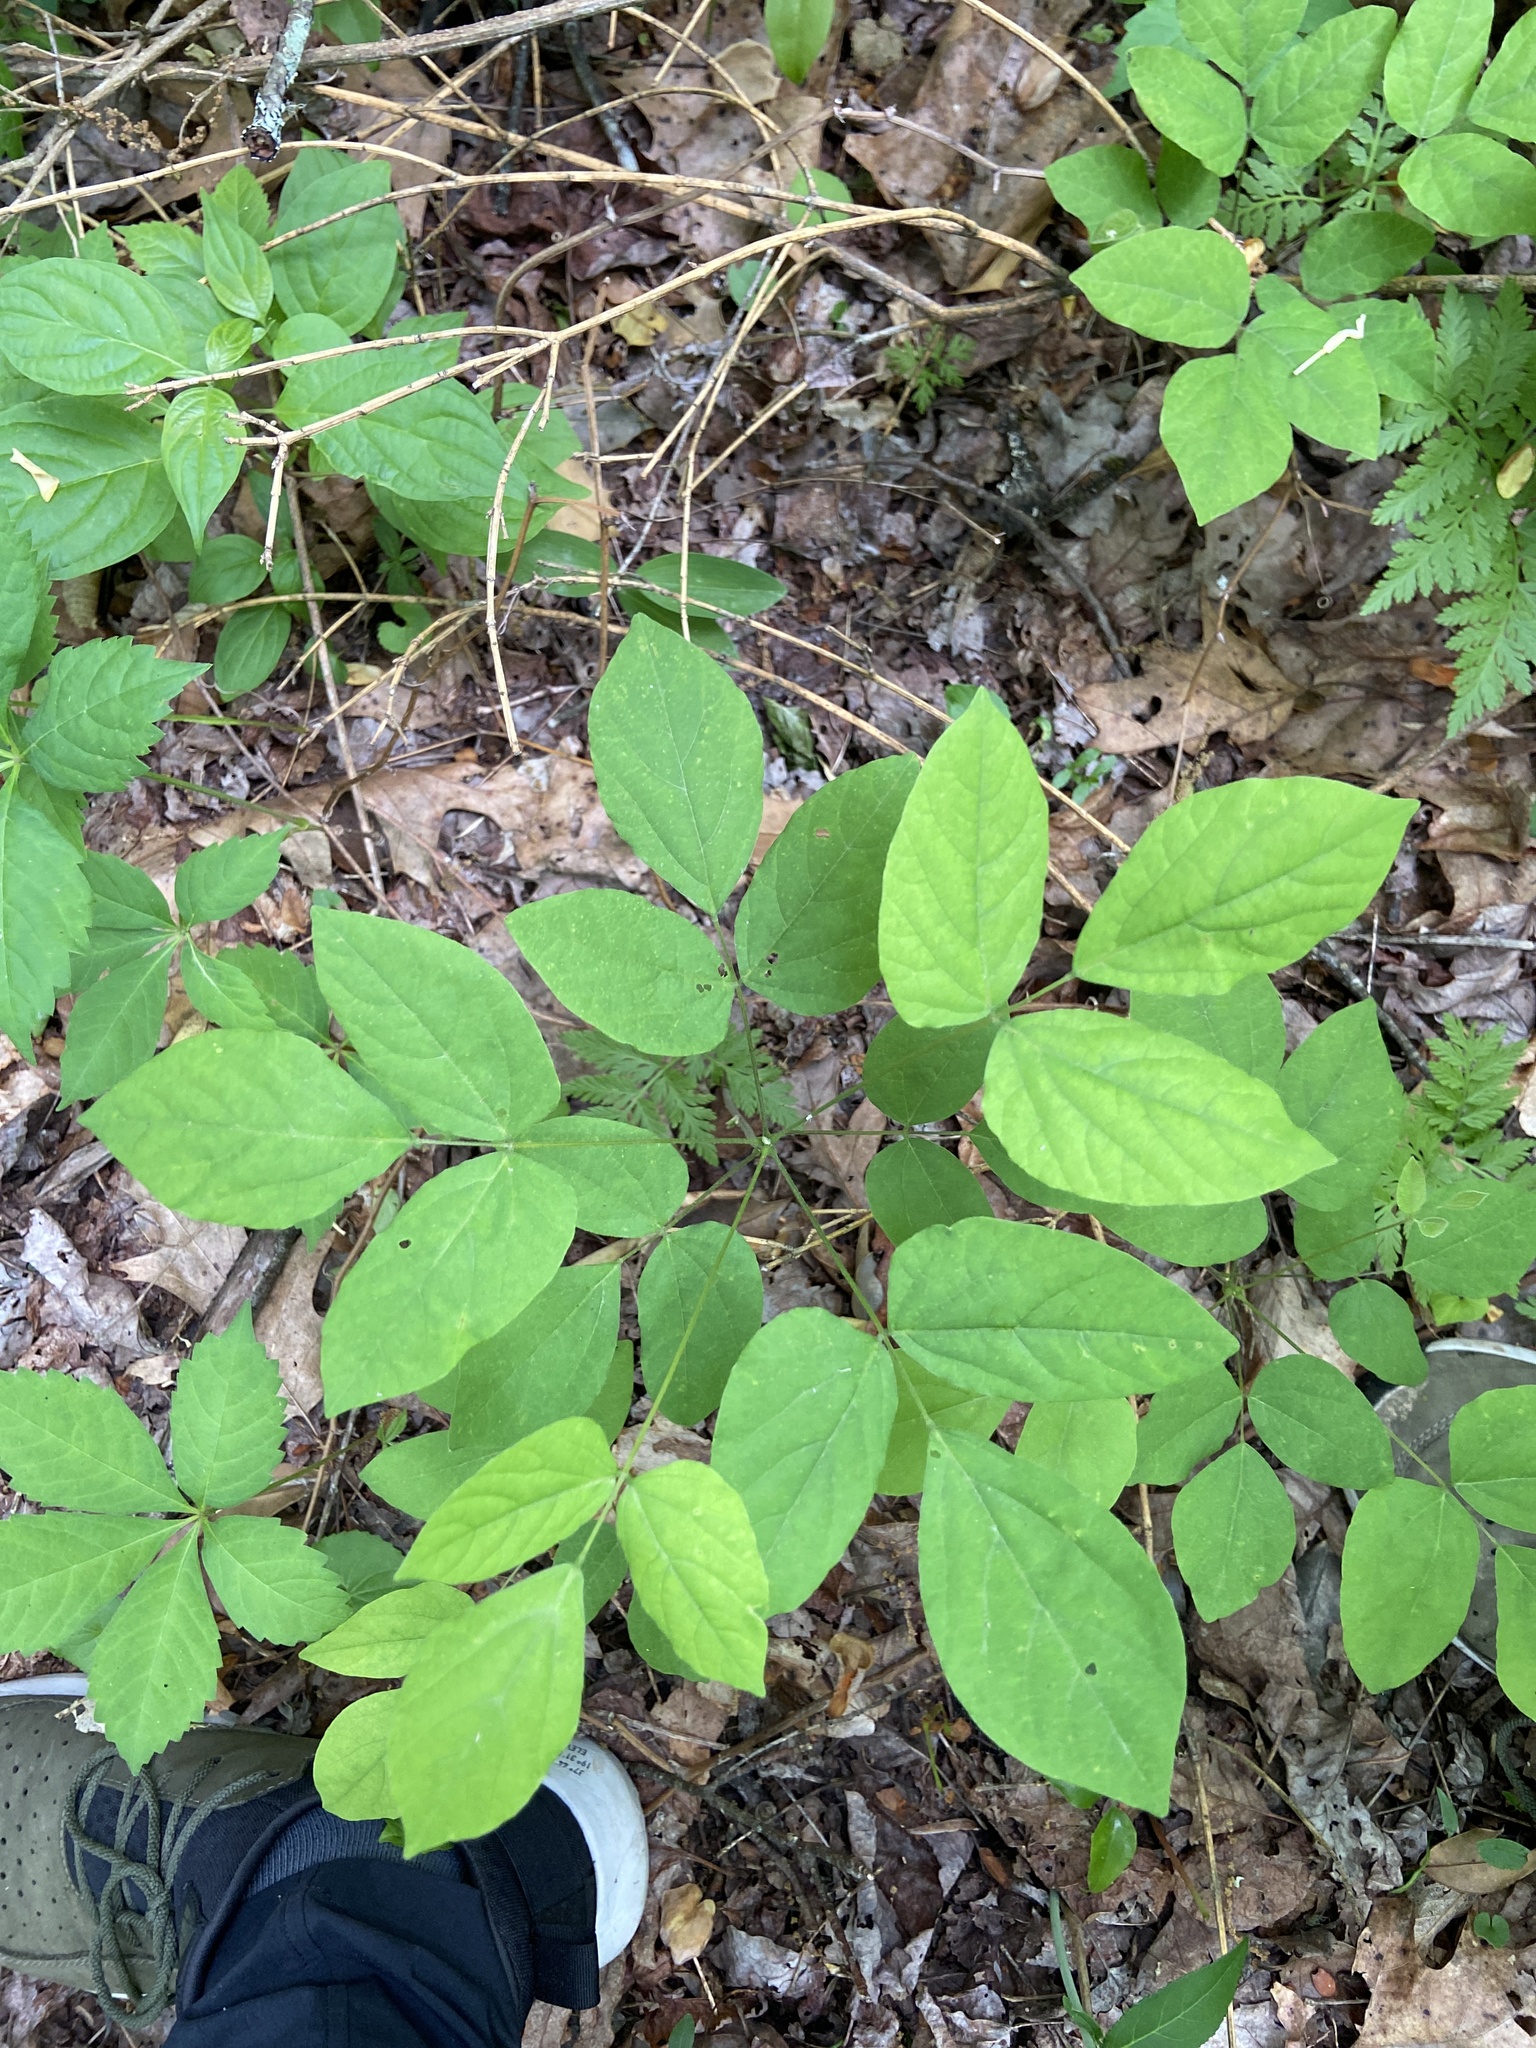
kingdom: Plantae
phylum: Tracheophyta
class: Magnoliopsida
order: Fabales
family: Fabaceae
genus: Hylodesmum
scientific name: Hylodesmum nudiflorum
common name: Bare-stemmed tick-trefoil
